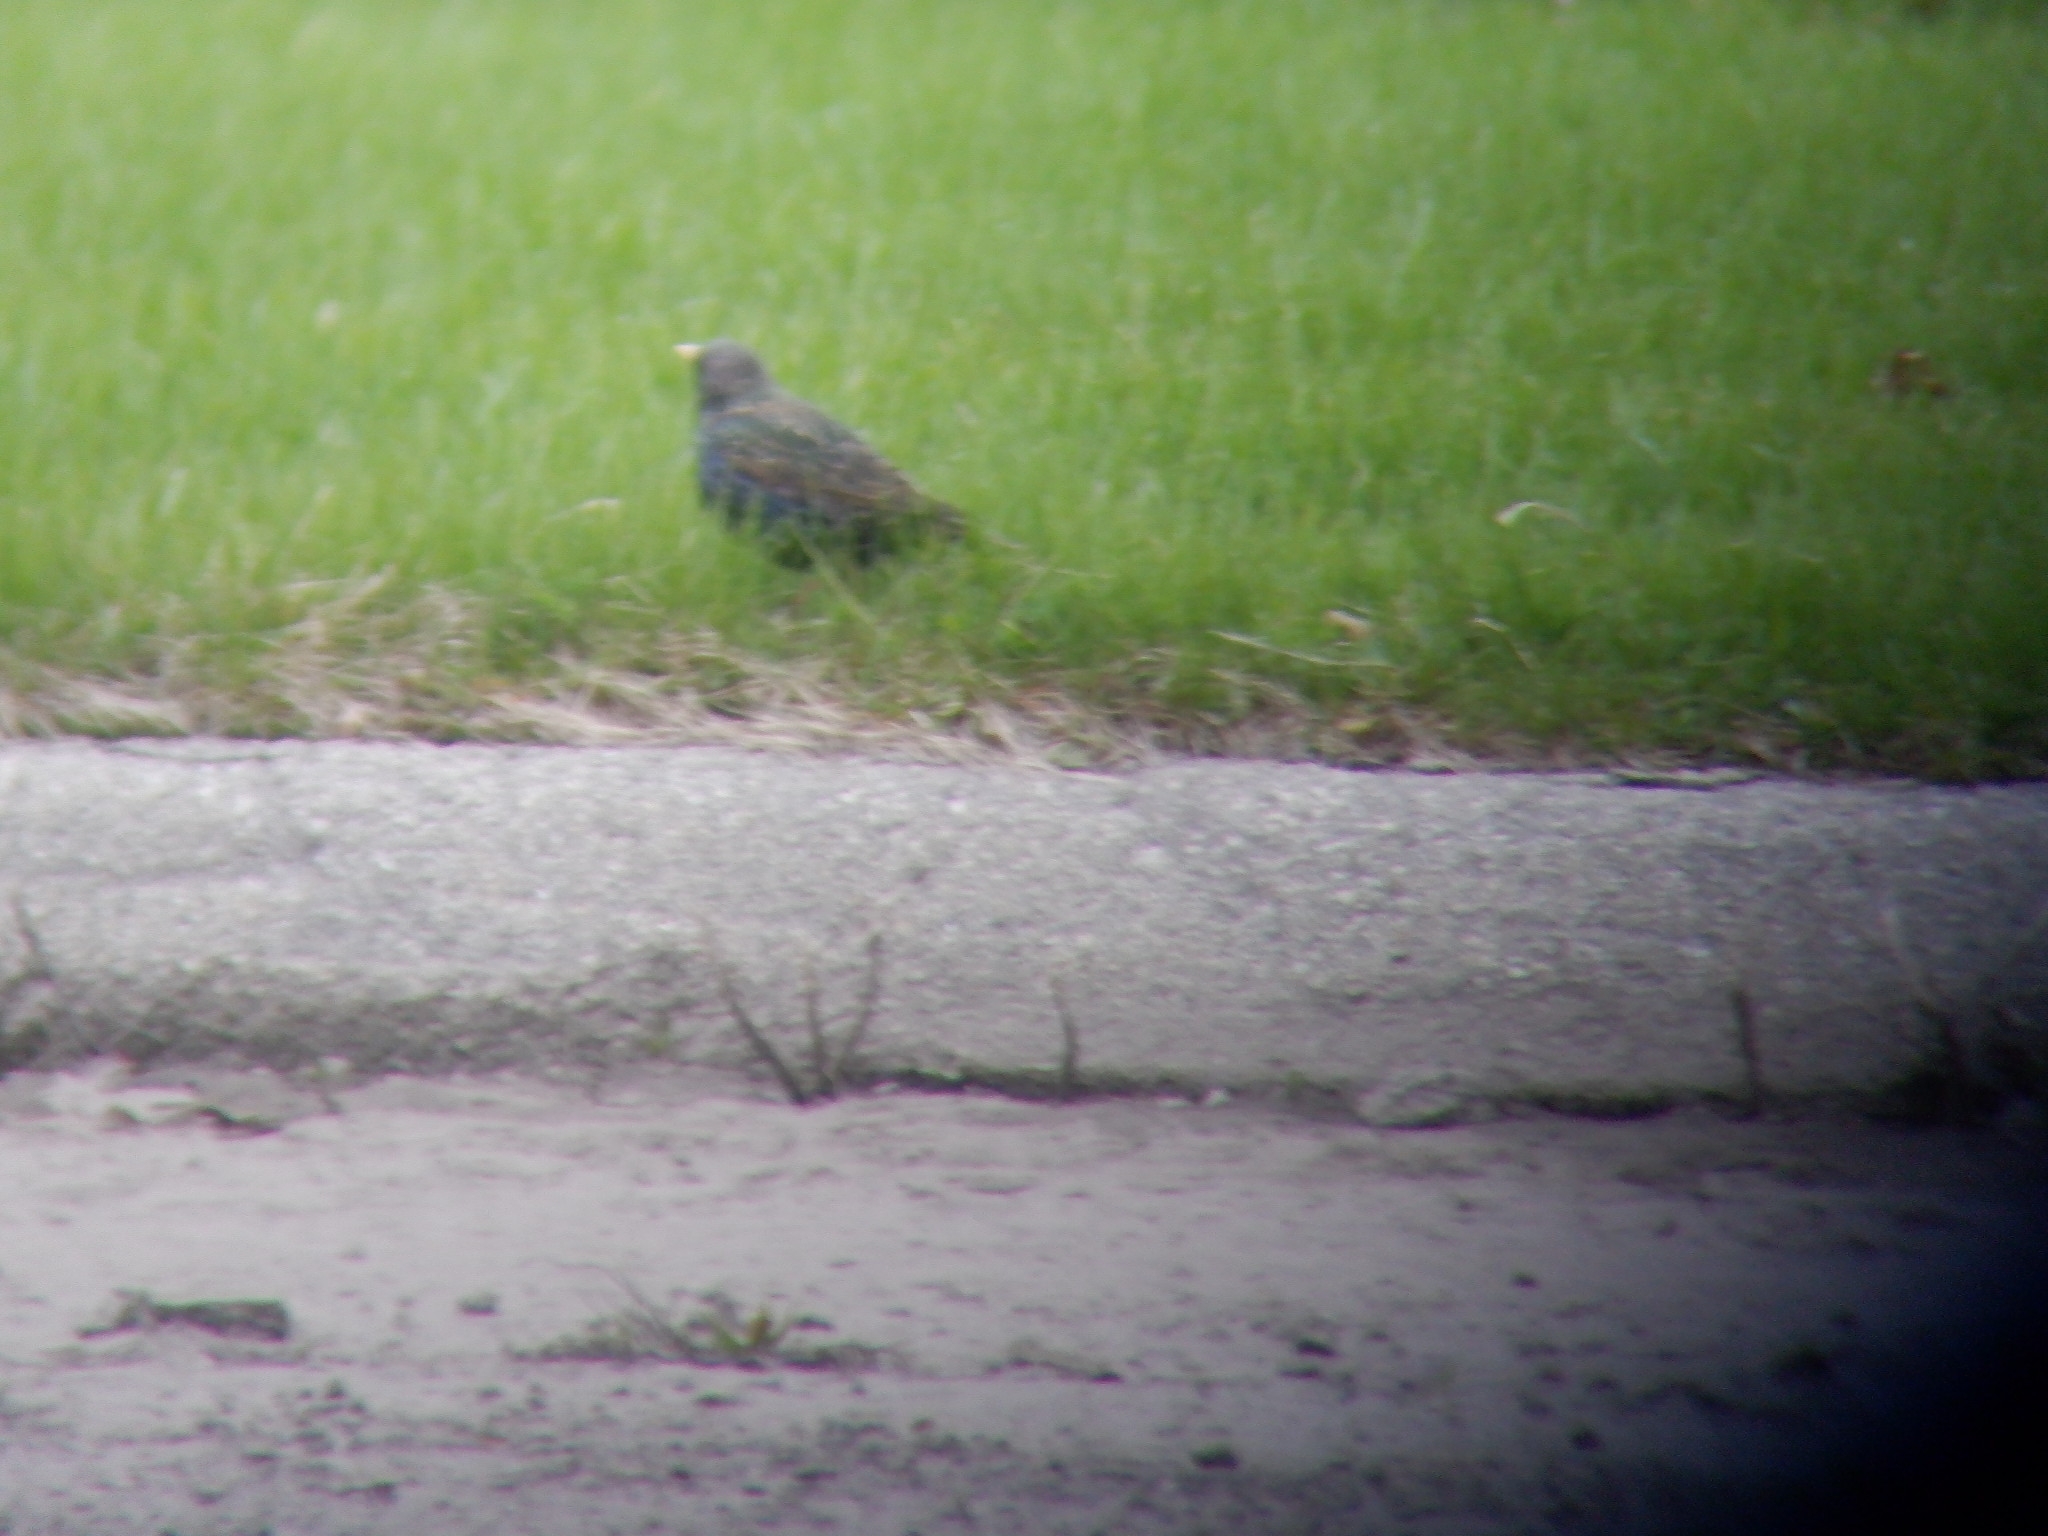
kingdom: Animalia
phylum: Chordata
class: Aves
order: Passeriformes
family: Sturnidae
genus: Sturnus
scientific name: Sturnus vulgaris
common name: Common starling
